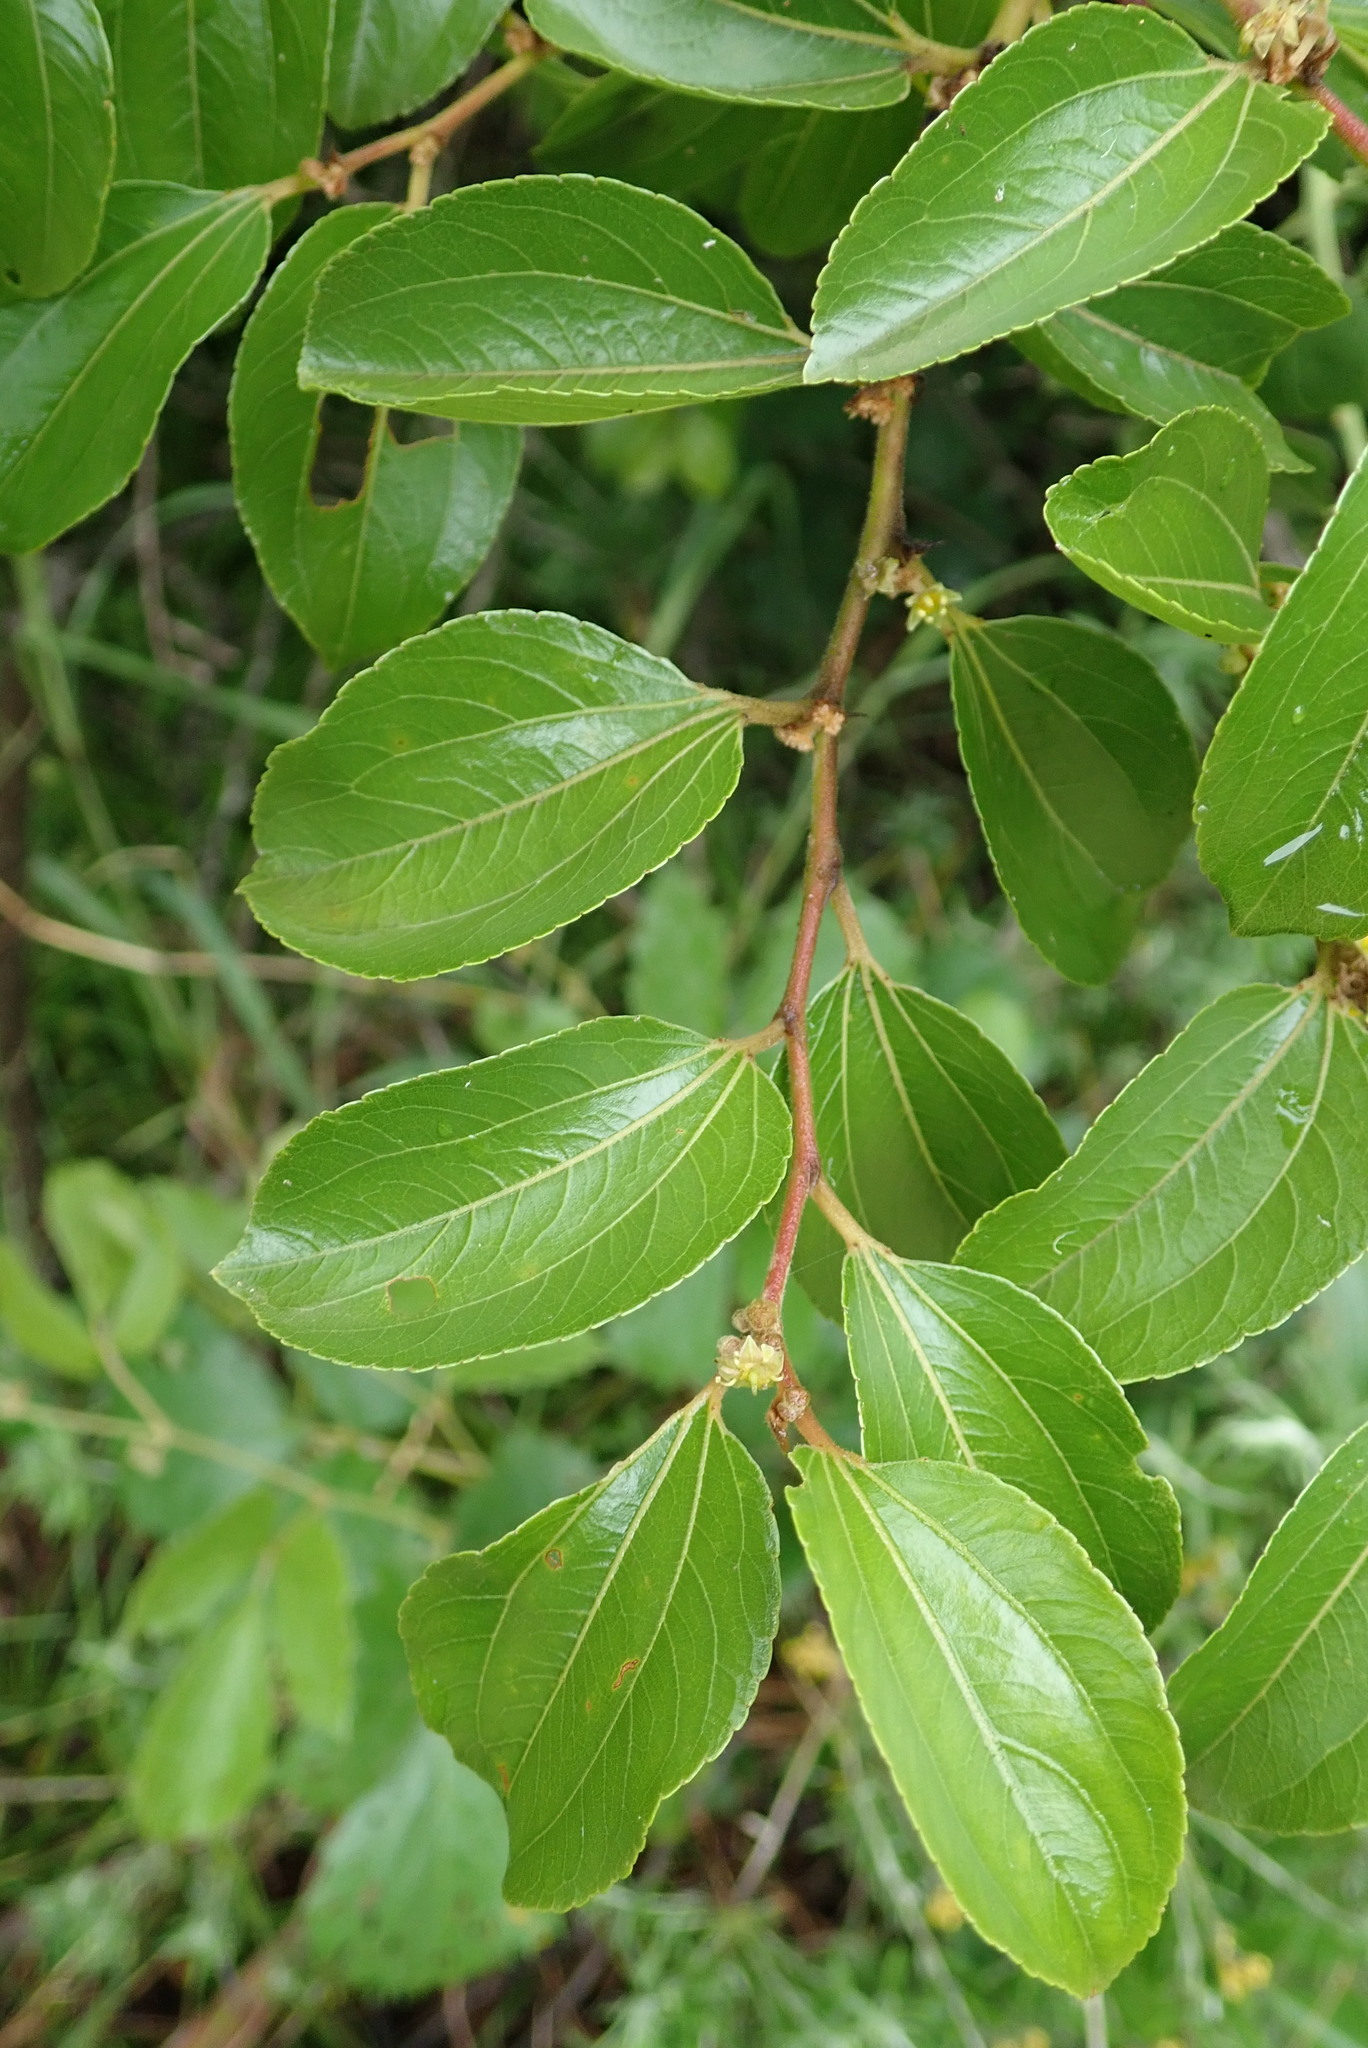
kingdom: Plantae
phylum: Tracheophyta
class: Magnoliopsida
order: Rosales
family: Rhamnaceae
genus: Ziziphus
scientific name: Ziziphus mucronata
